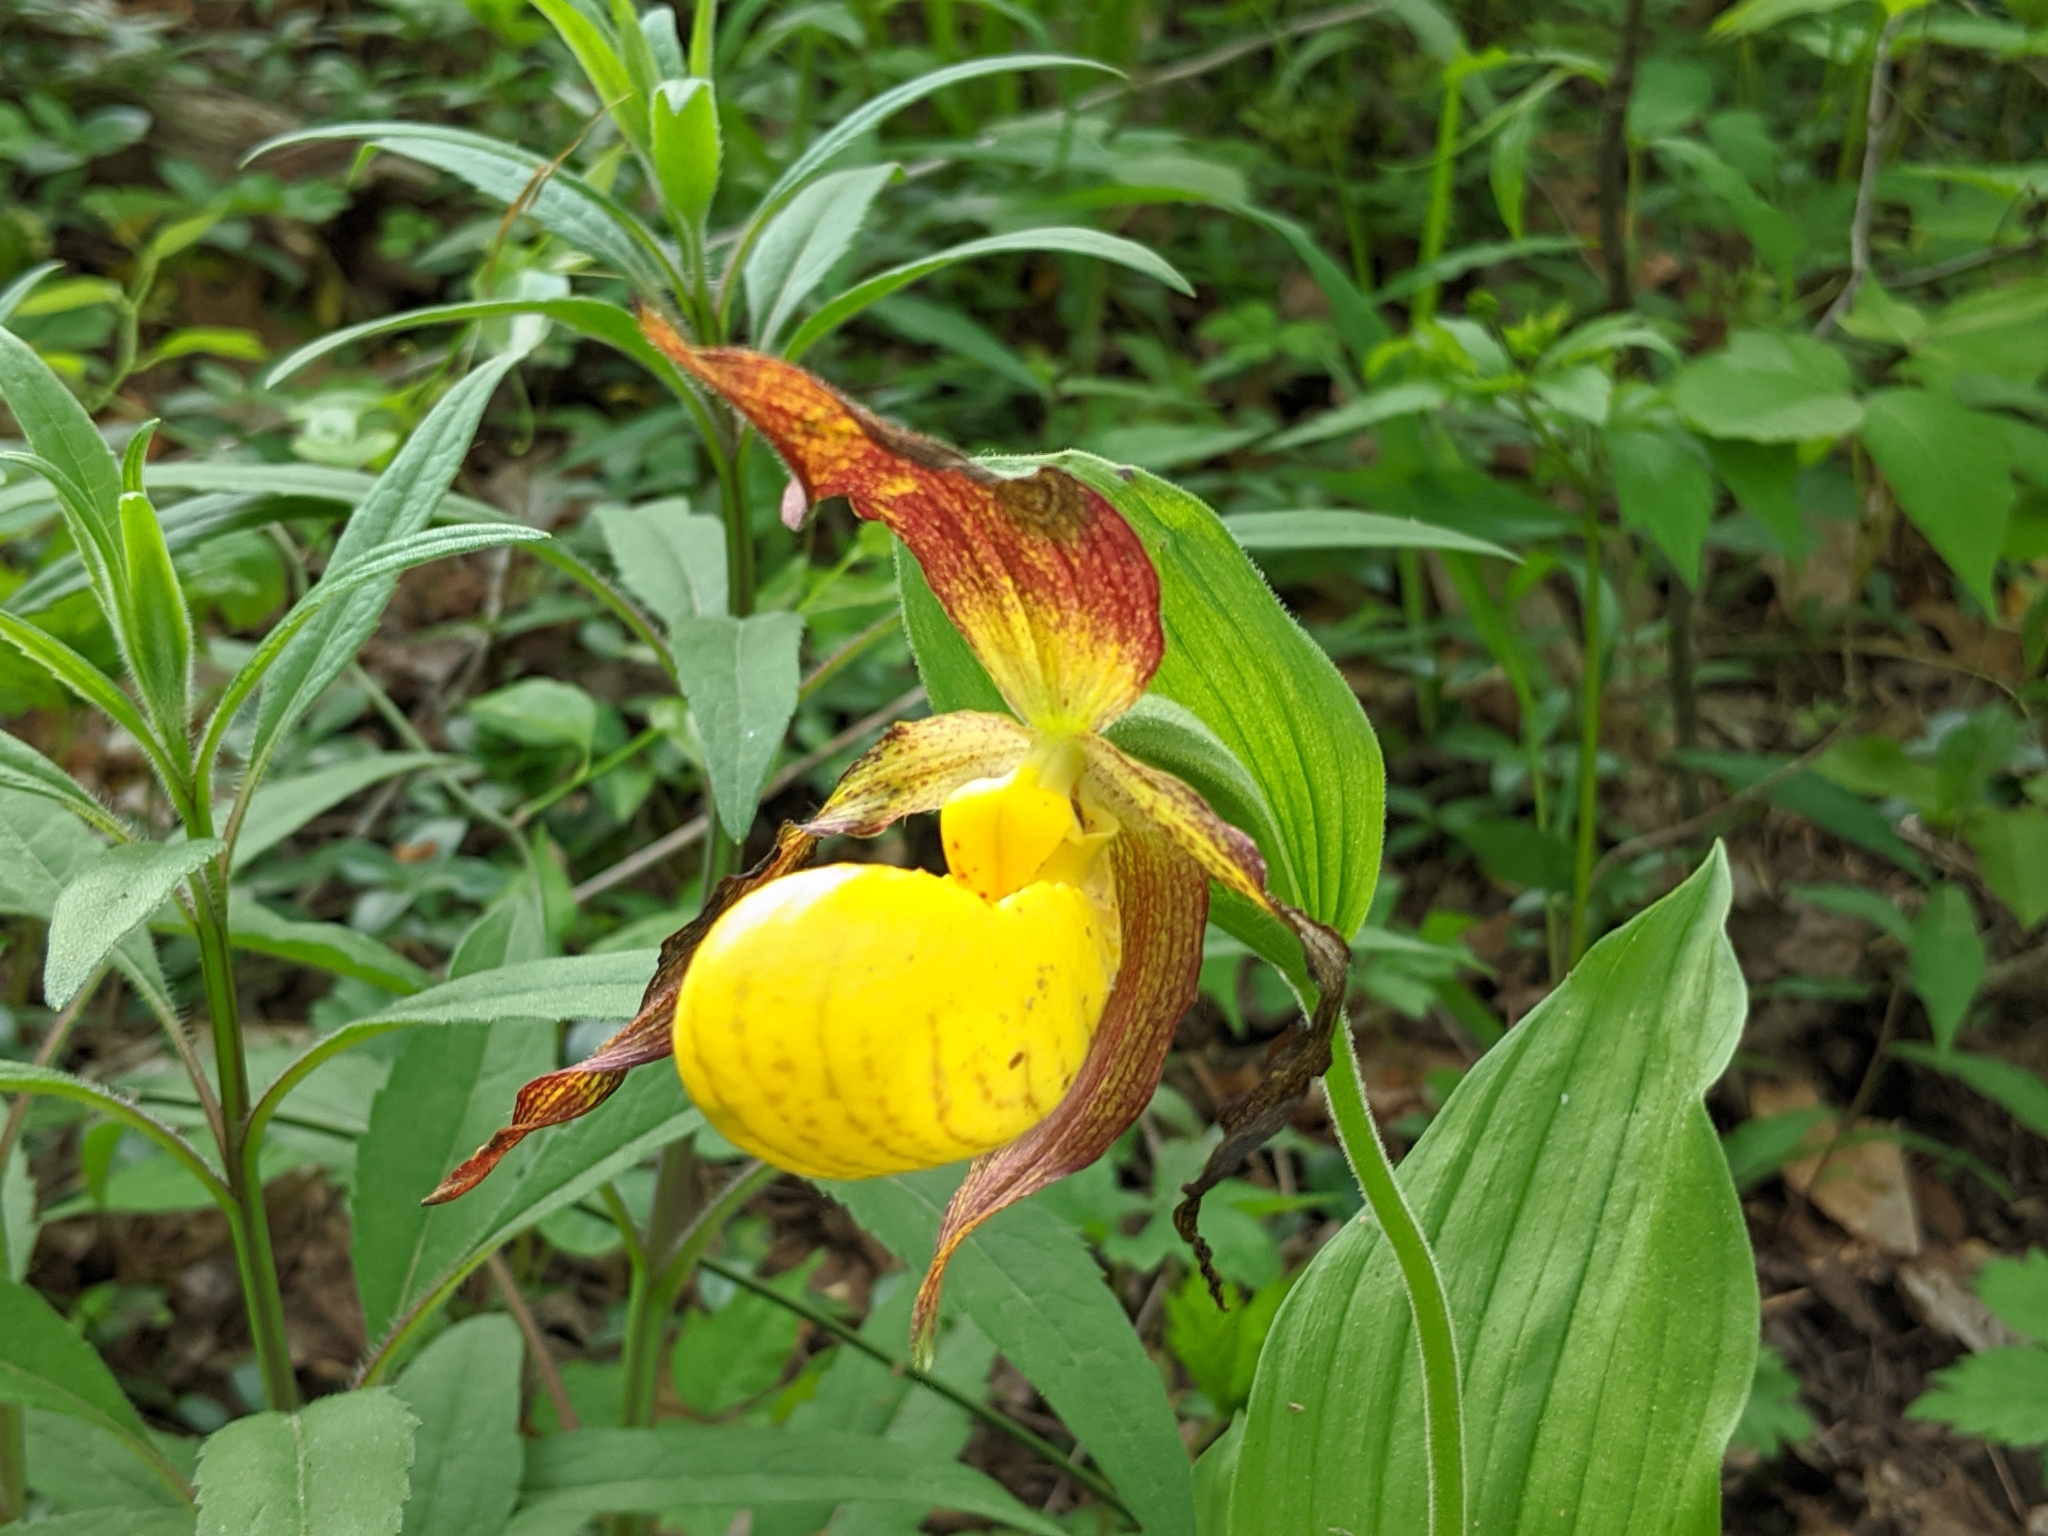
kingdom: Plantae
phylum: Tracheophyta
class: Liliopsida
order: Asparagales
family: Orchidaceae
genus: Cypripedium
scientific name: Cypripedium parviflorum
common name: American yellow lady's-slipper
